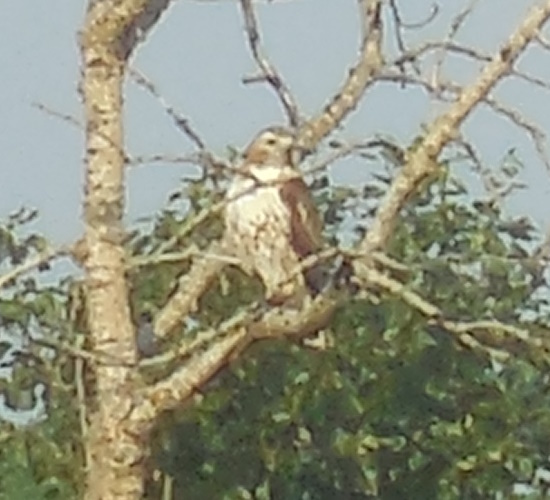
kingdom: Animalia
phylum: Chordata
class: Aves
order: Accipitriformes
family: Accipitridae
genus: Buteo
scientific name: Buteo jamaicensis
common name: Red-tailed hawk
